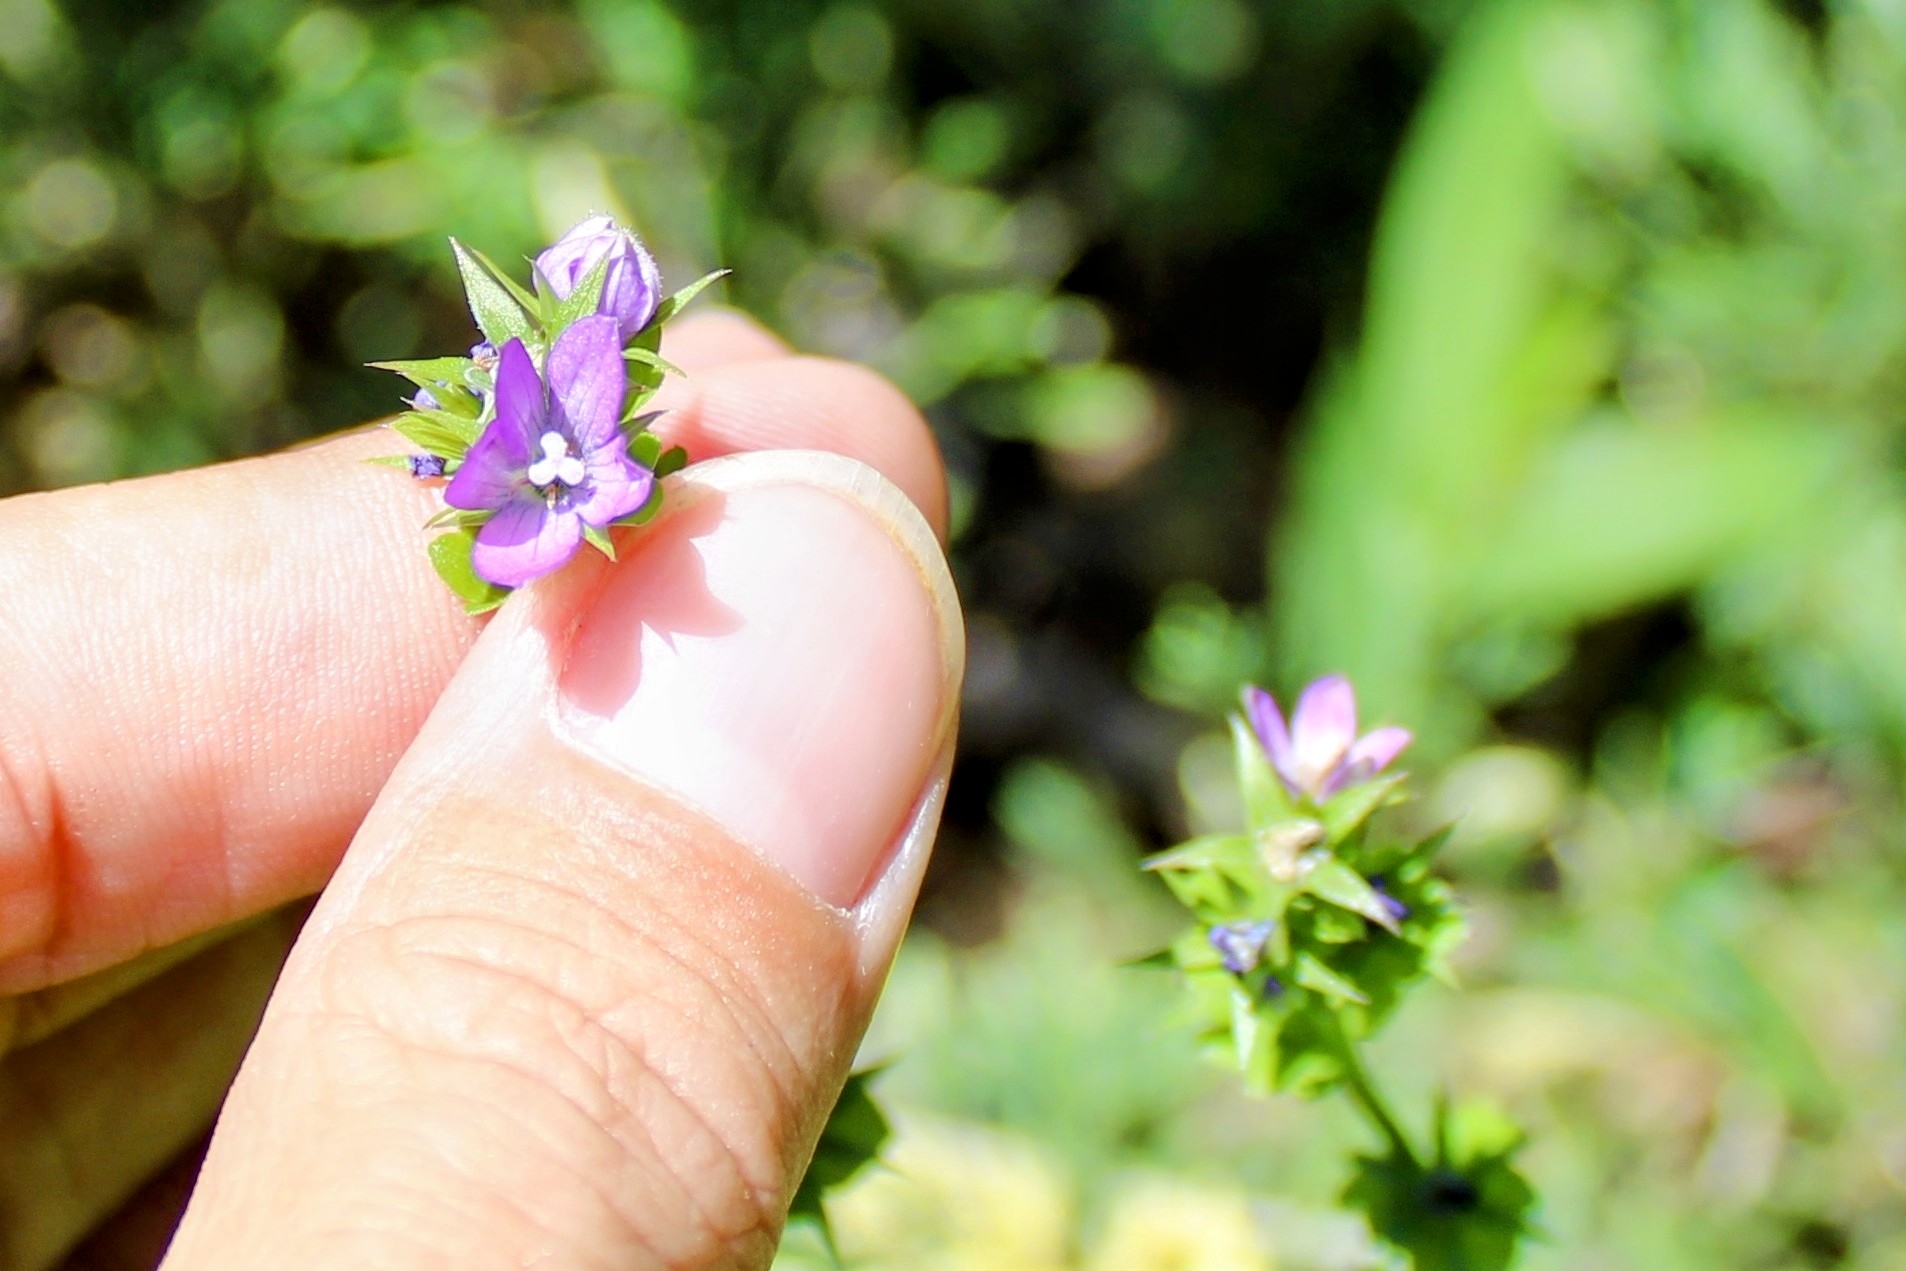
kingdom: Plantae
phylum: Tracheophyta
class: Magnoliopsida
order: Asterales
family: Campanulaceae
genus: Triodanis
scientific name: Triodanis perfoliata
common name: Clasping venus' looking-glass
